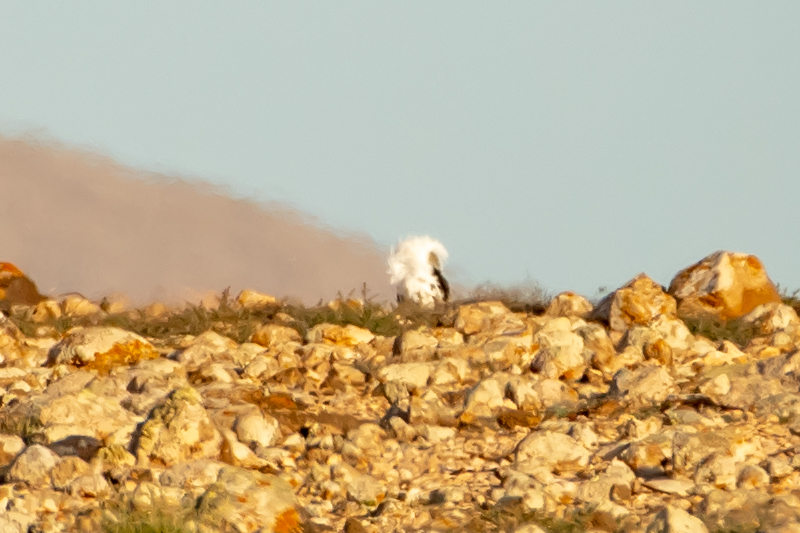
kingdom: Animalia
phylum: Chordata
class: Aves
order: Otidiformes
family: Otididae
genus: Chlamydotis
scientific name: Chlamydotis undulata
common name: Houbara bustard
